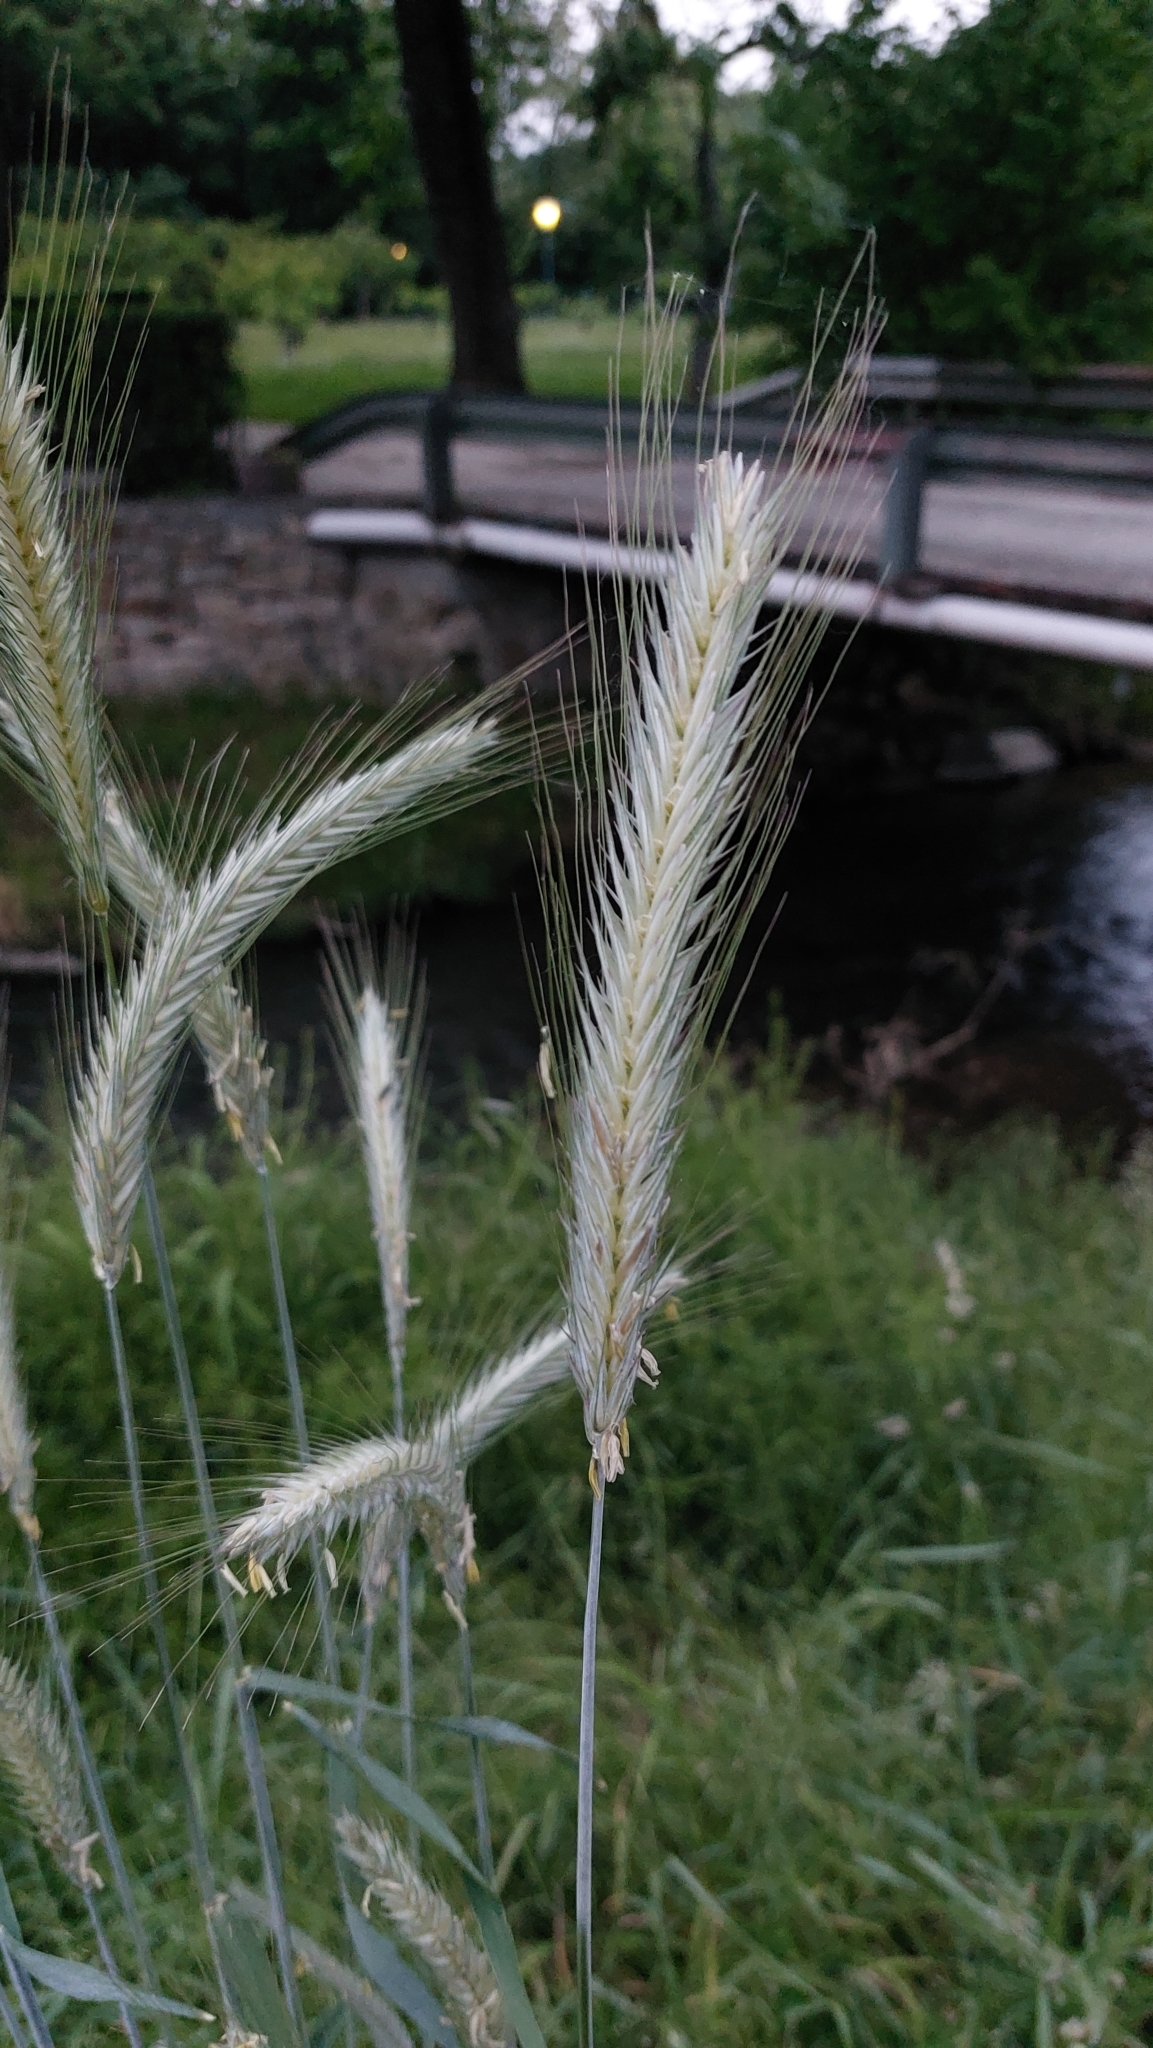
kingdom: Plantae
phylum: Tracheophyta
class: Liliopsida
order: Poales
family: Poaceae
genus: Secale
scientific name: Secale cereale
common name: Rye
